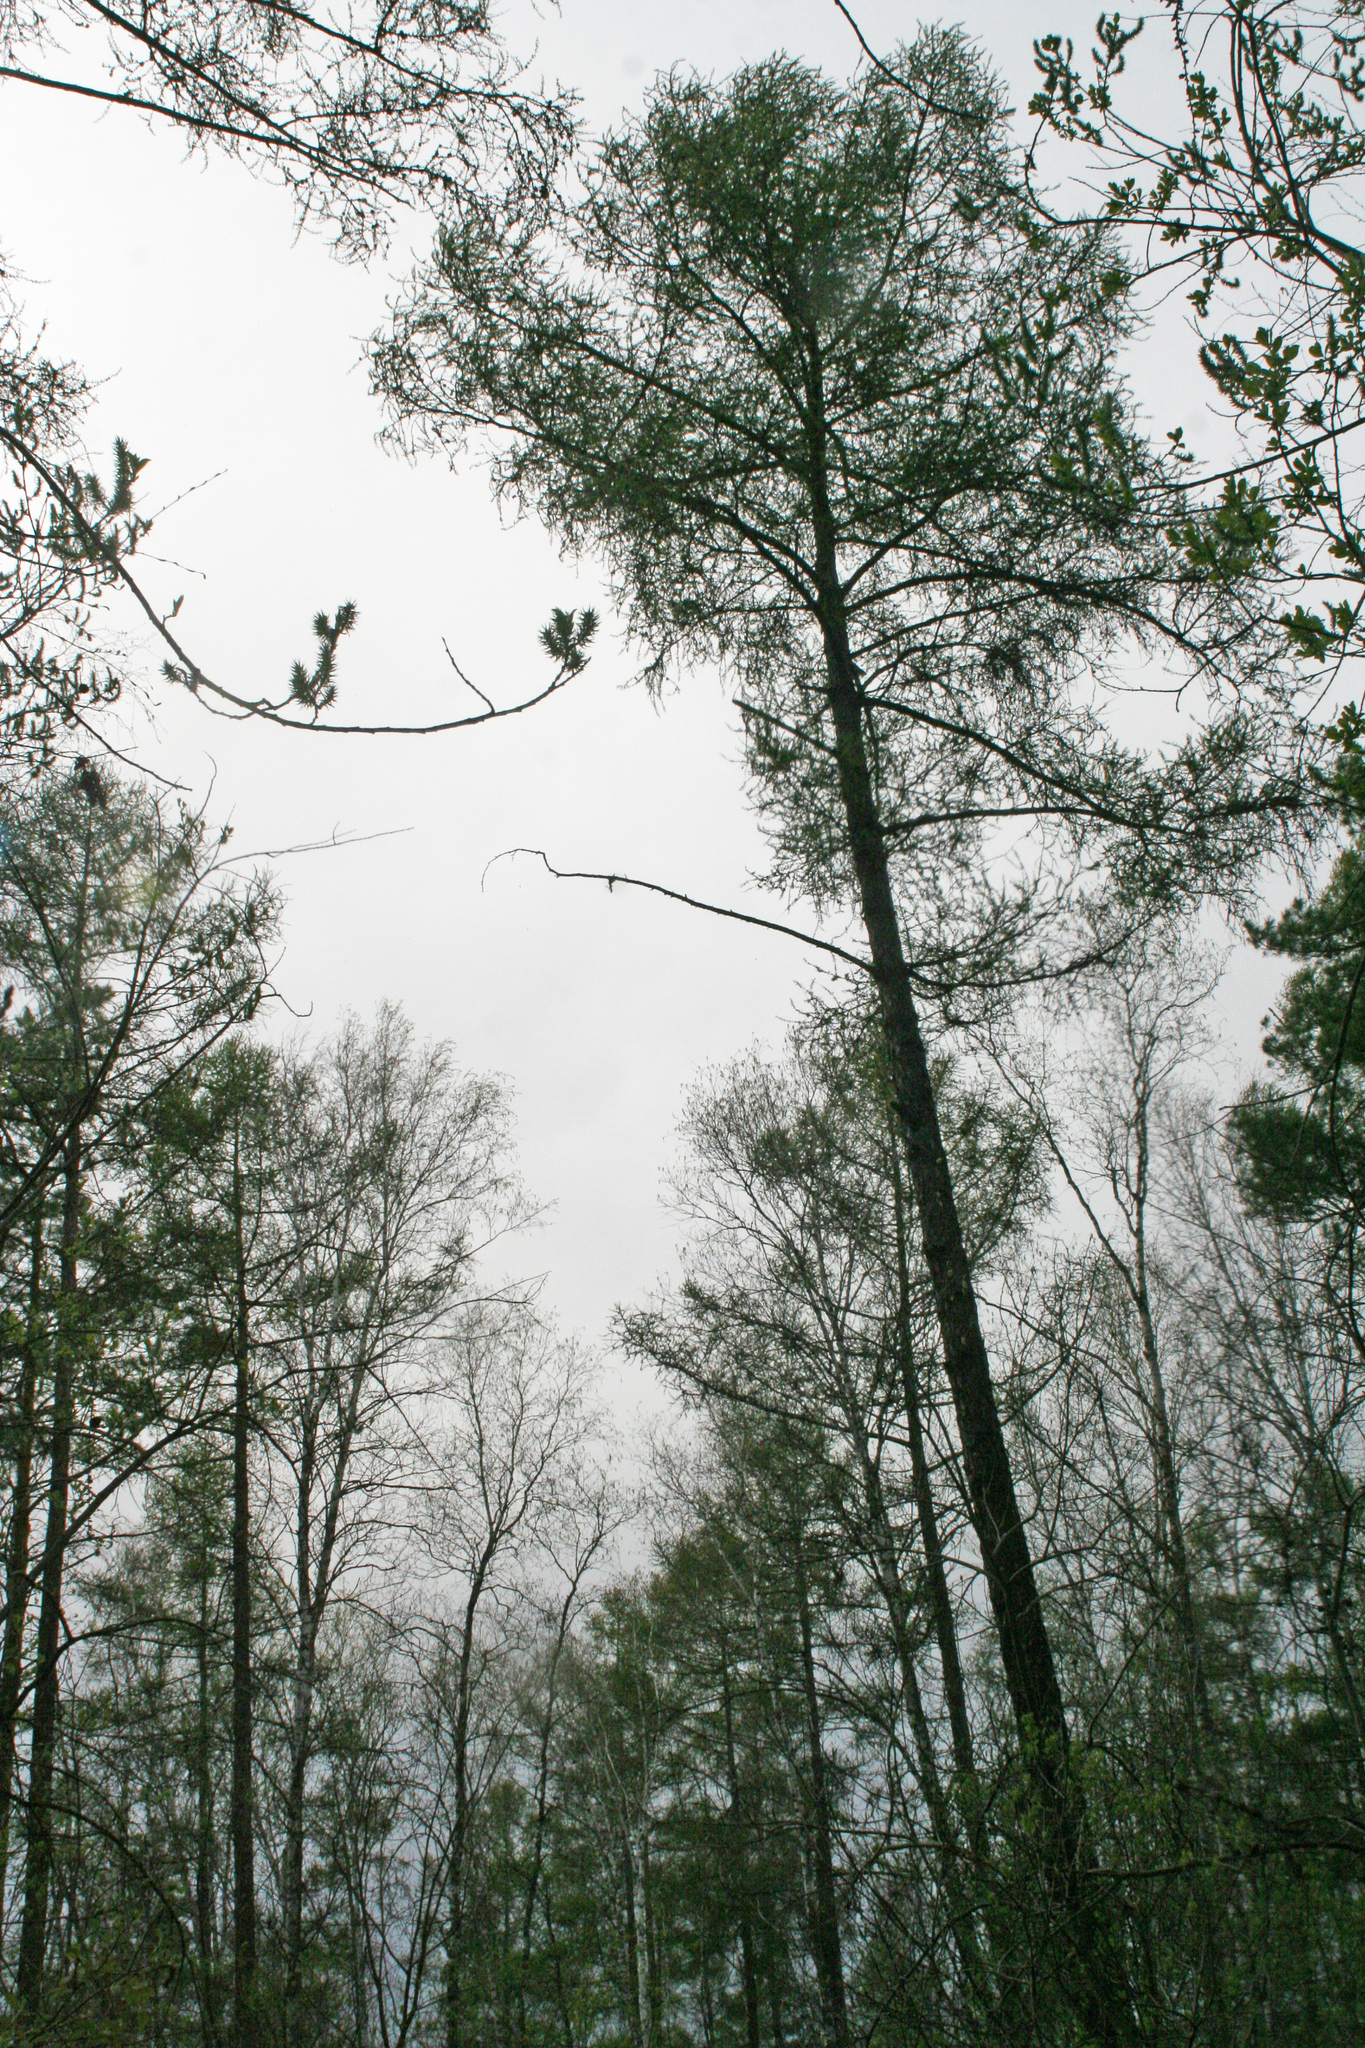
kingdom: Plantae
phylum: Tracheophyta
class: Pinopsida
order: Pinales
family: Pinaceae
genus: Larix
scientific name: Larix sibirica
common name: Siberian larch
